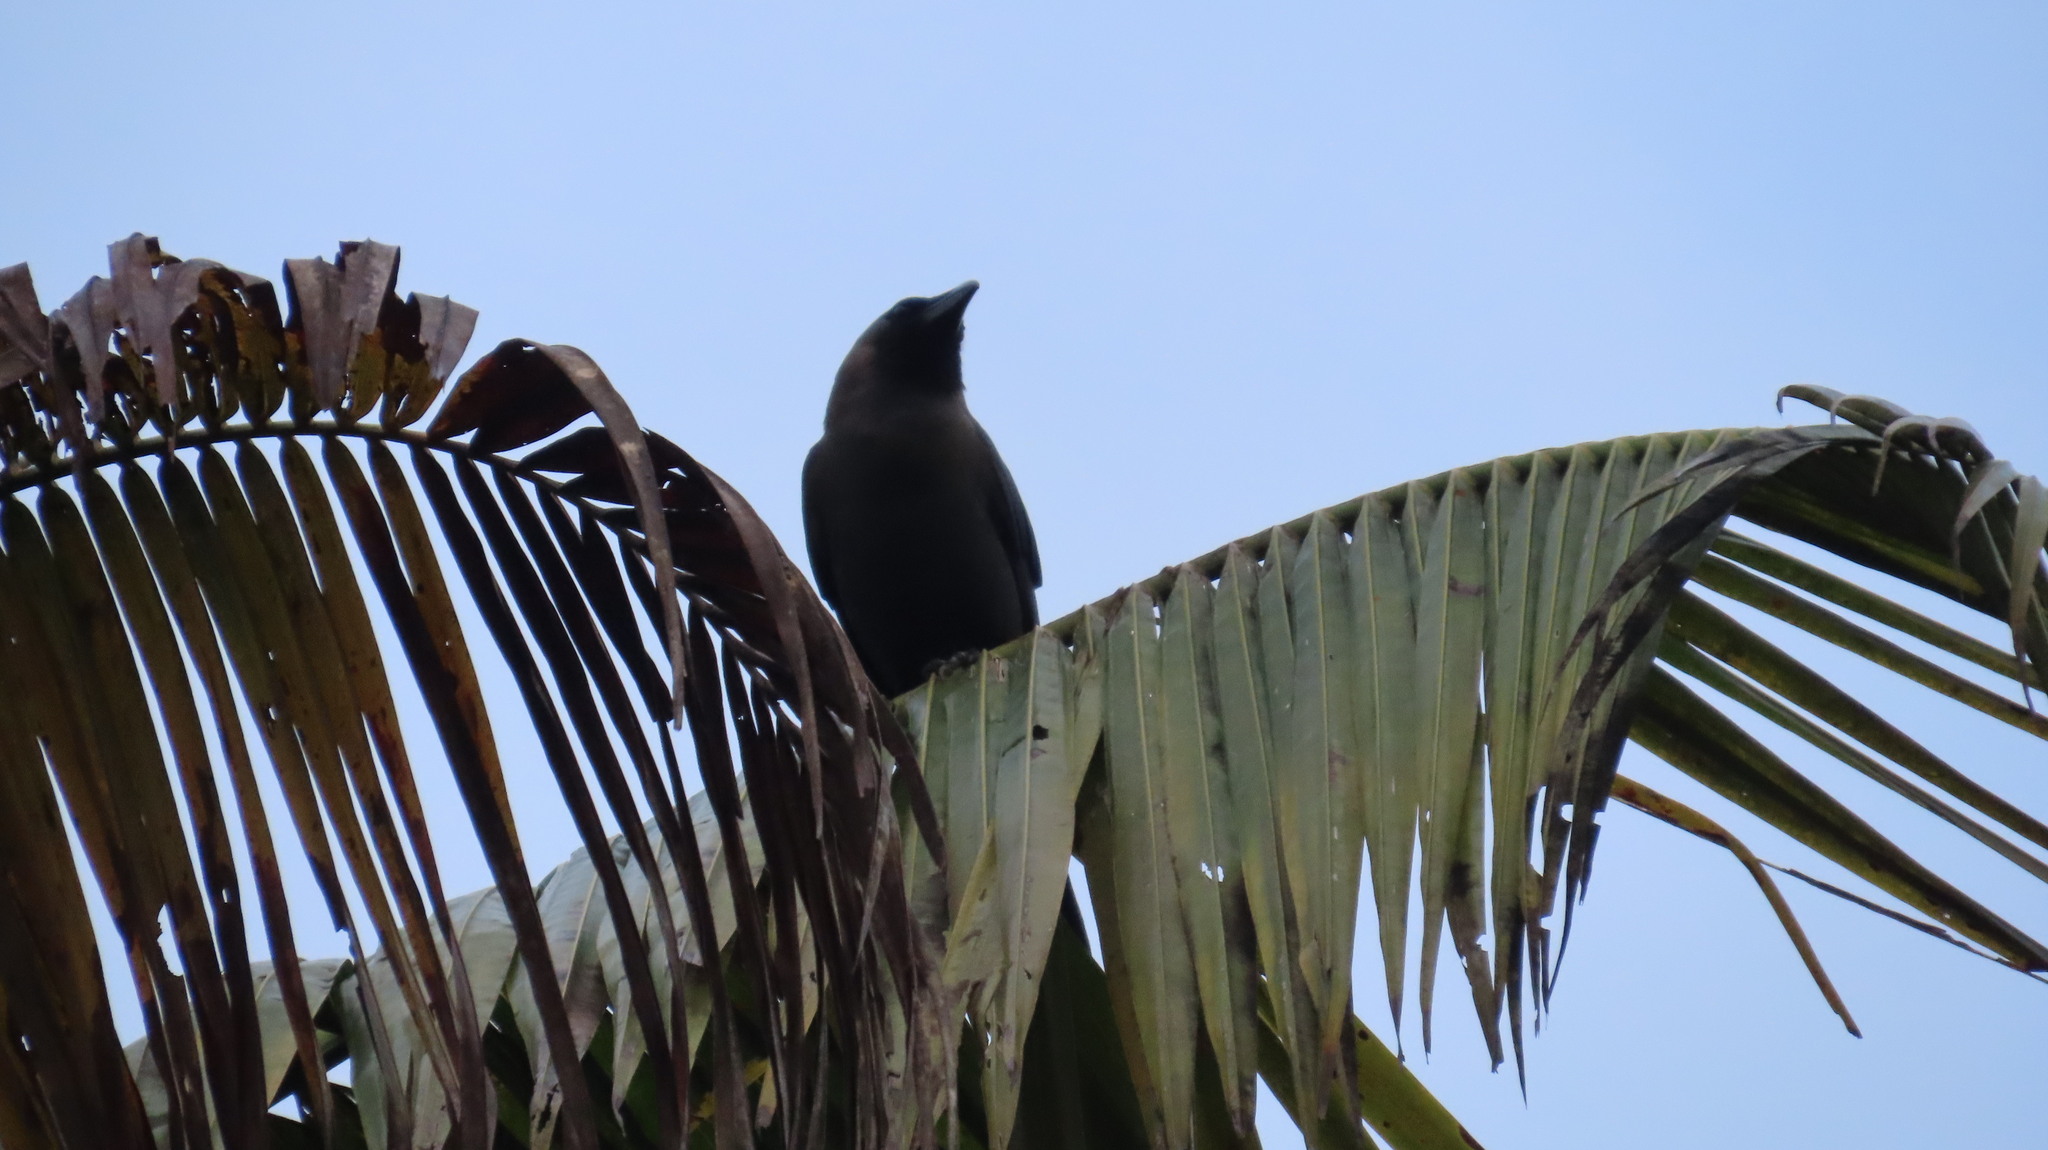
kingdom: Animalia
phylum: Chordata
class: Aves
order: Passeriformes
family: Corvidae
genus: Corvus
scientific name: Corvus splendens
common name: House crow
